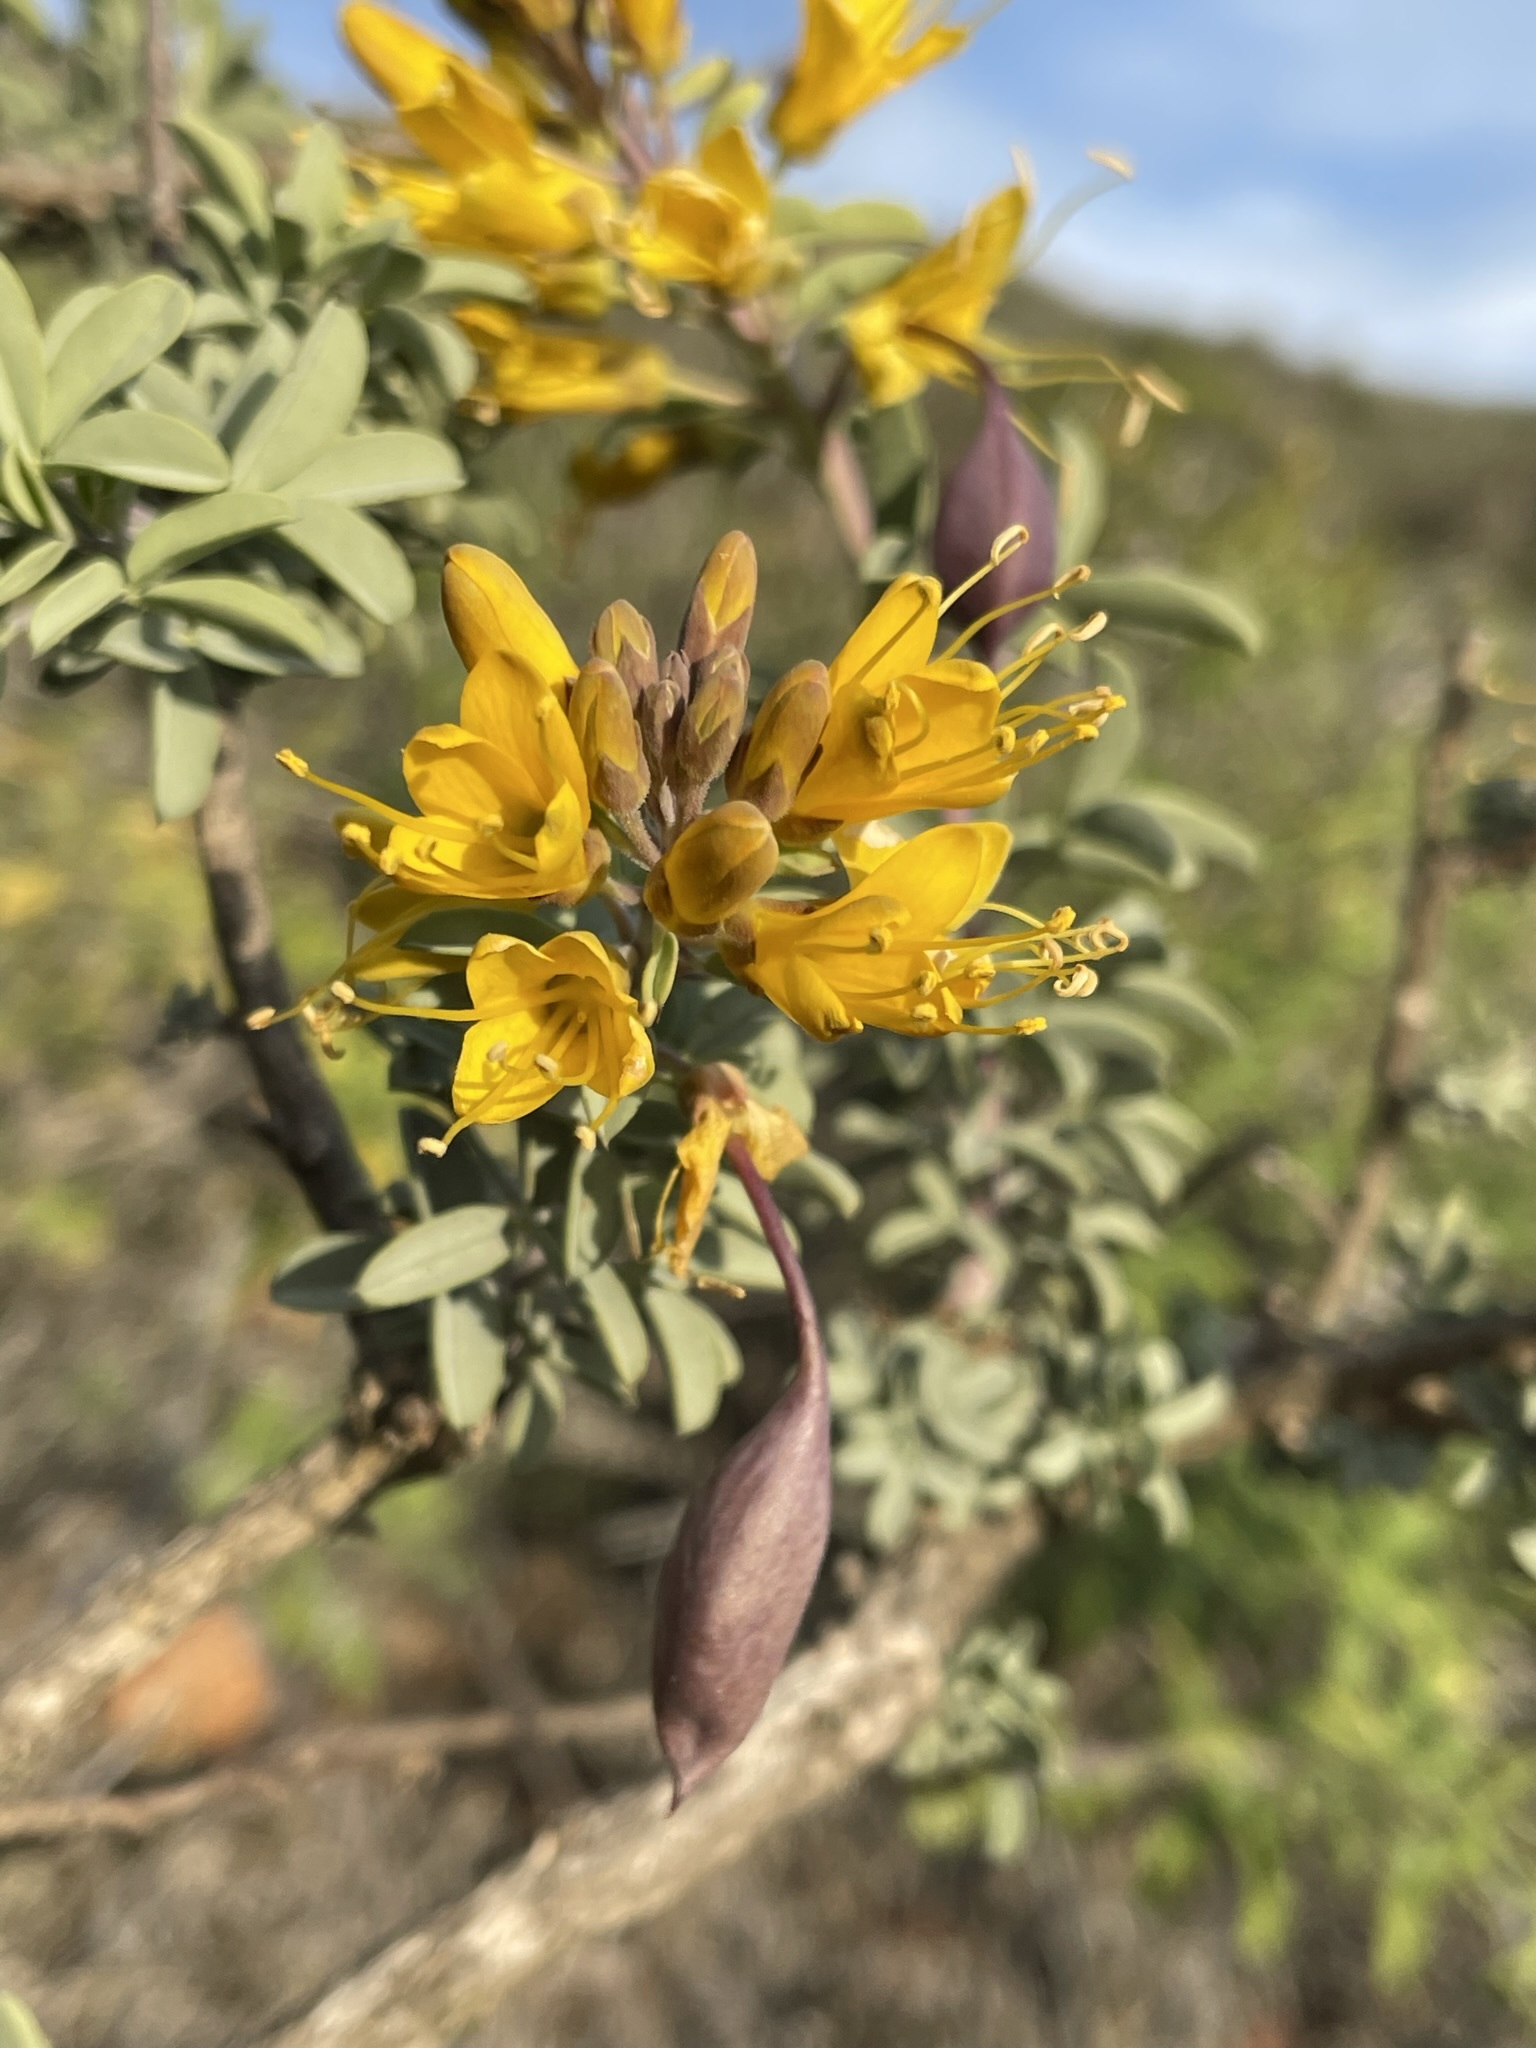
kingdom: Plantae
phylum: Tracheophyta
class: Magnoliopsida
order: Brassicales
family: Cleomaceae
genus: Cleomella
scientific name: Cleomella arborea
